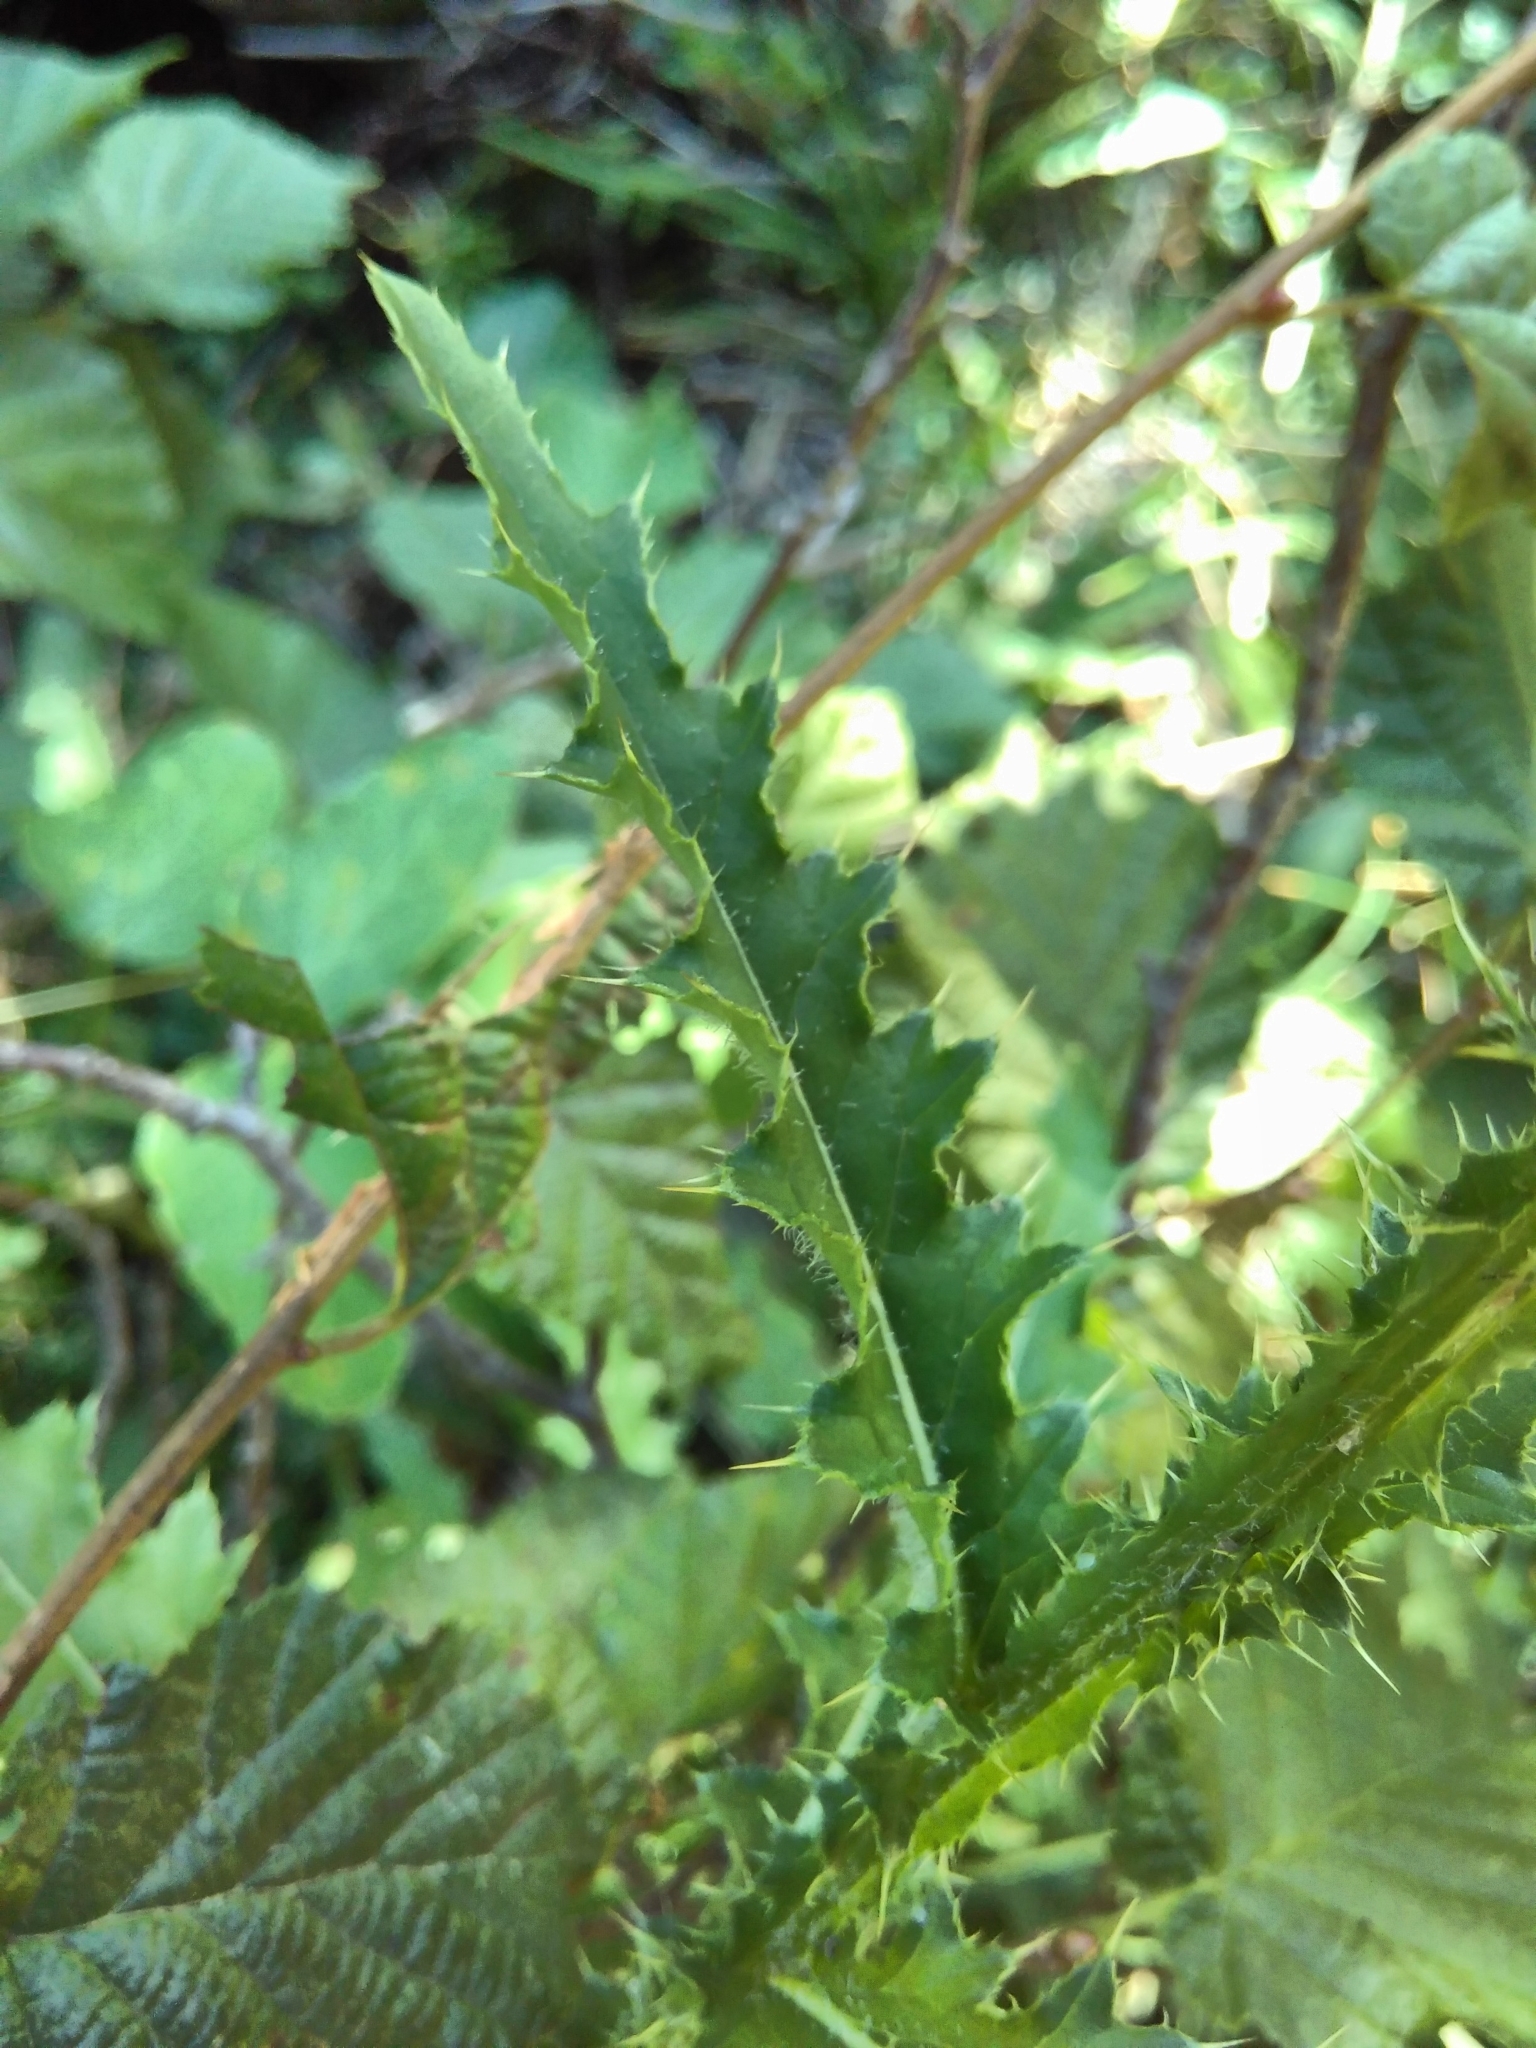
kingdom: Plantae
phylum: Tracheophyta
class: Magnoliopsida
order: Asterales
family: Asteraceae
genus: Carduus
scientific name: Carduus defloratus
